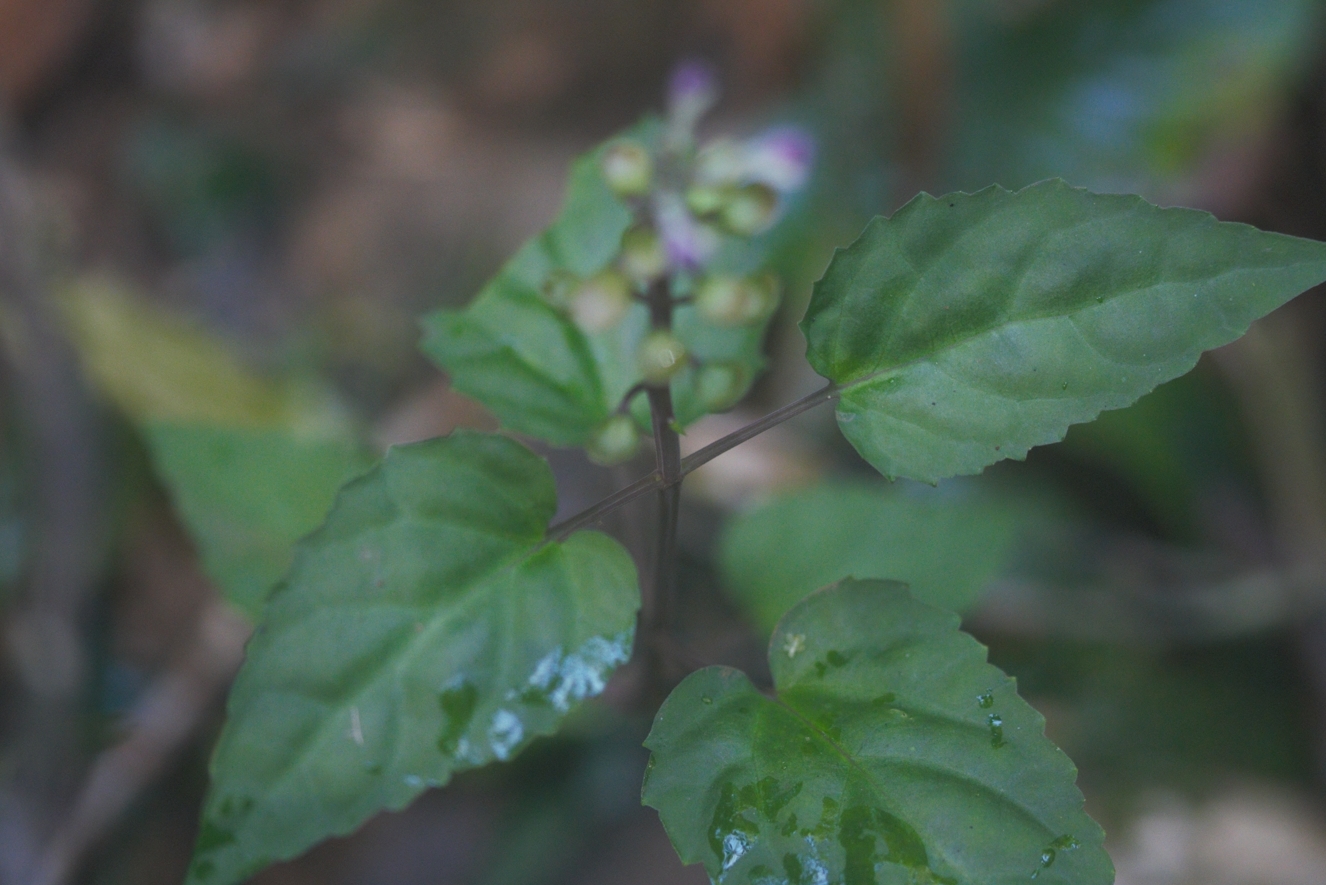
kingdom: Plantae
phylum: Tracheophyta
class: Magnoliopsida
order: Lamiales
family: Lamiaceae
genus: Scutellaria
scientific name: Scutellaria leucantha
